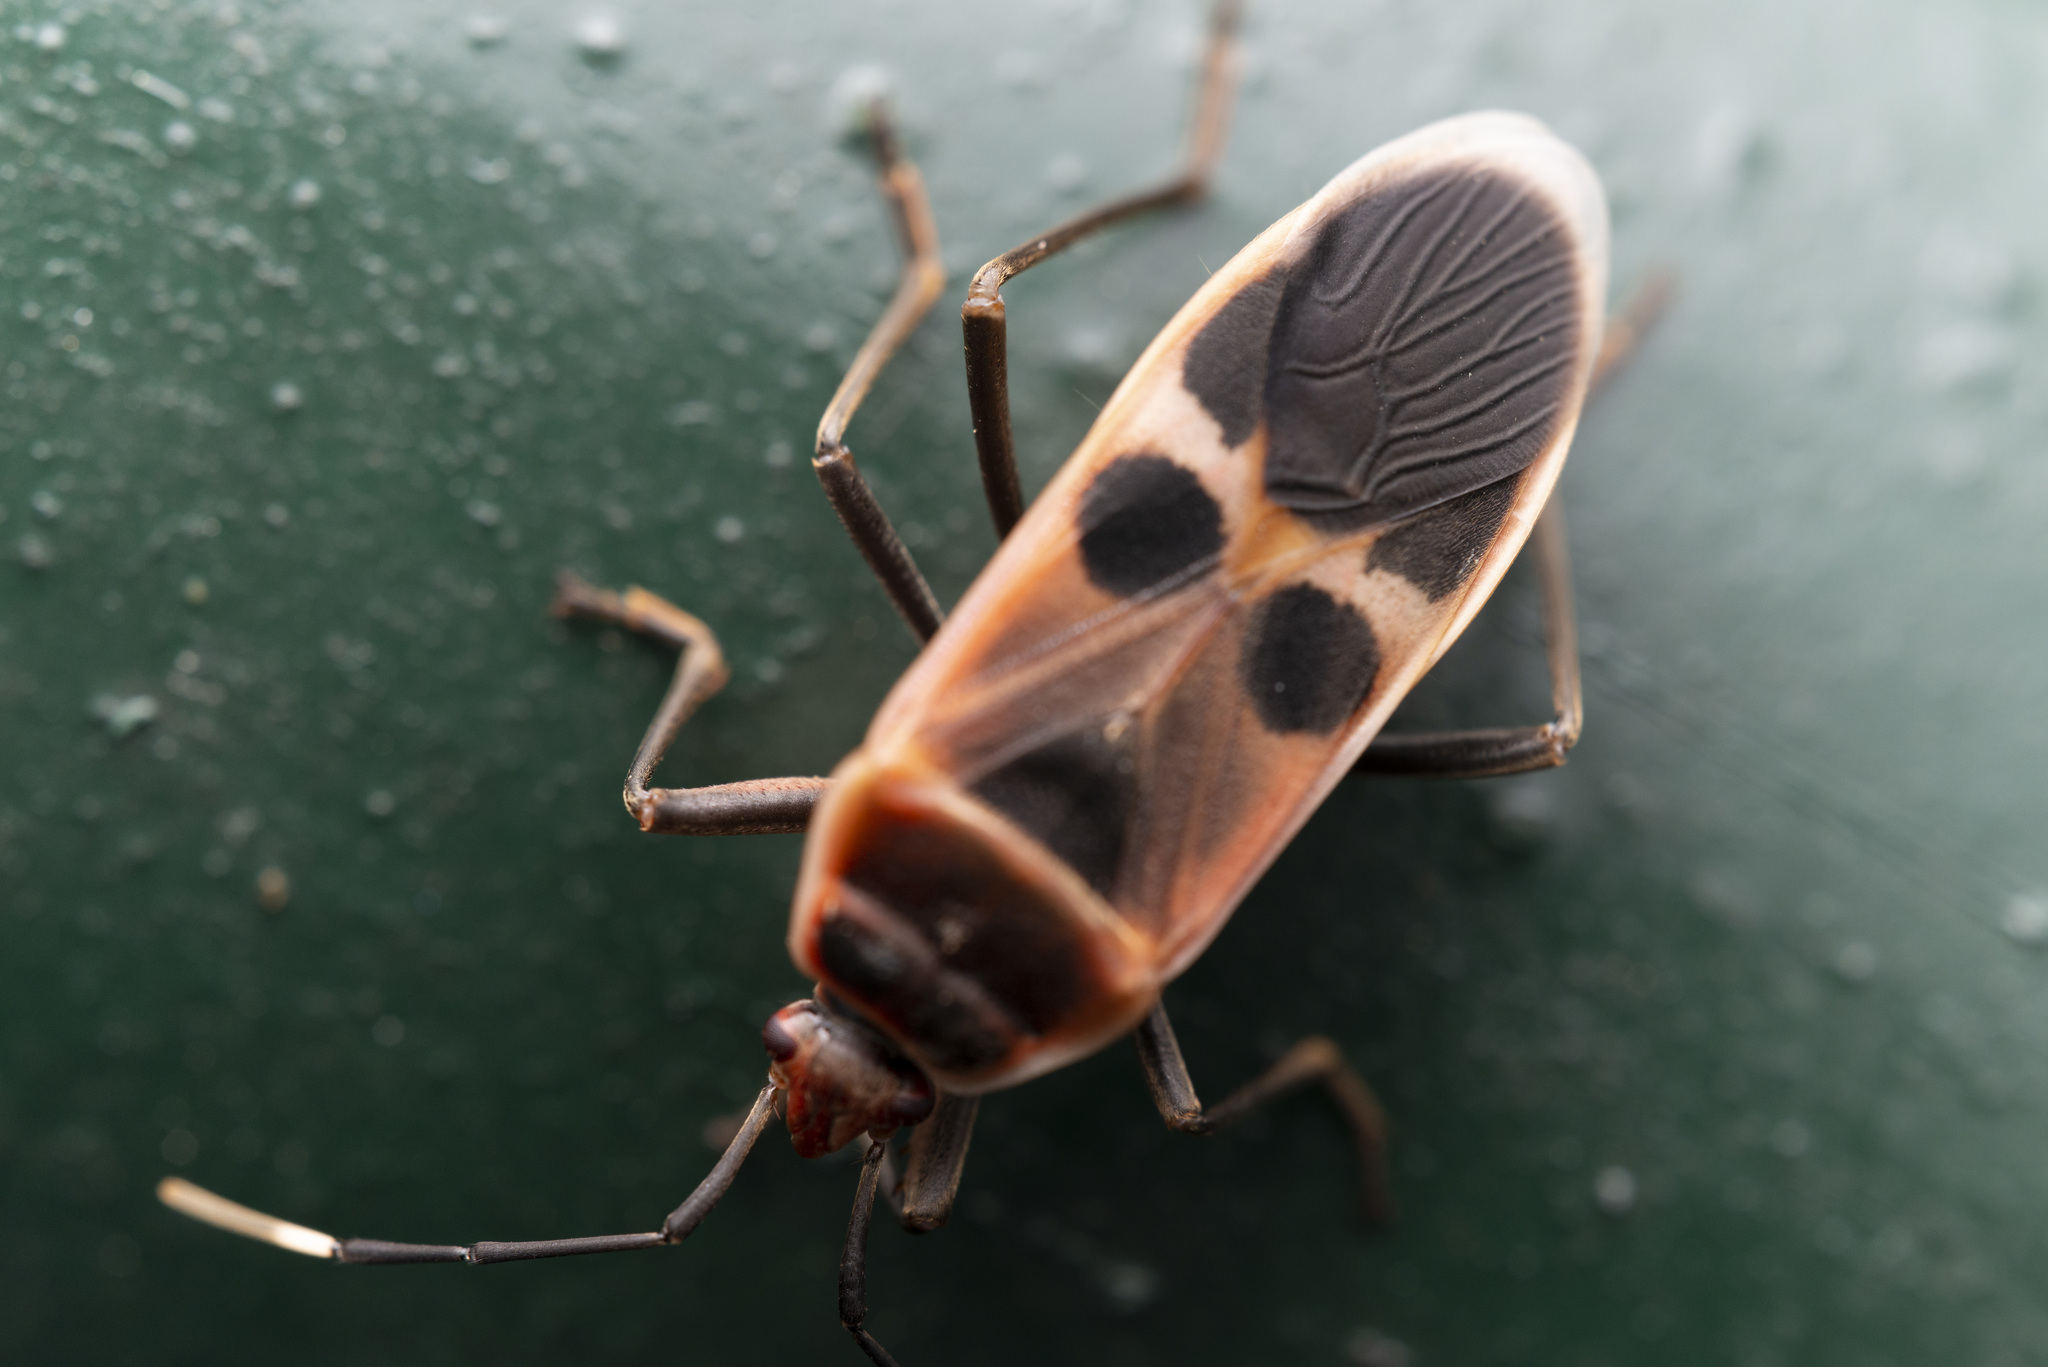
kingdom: Animalia
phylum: Arthropoda
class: Insecta
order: Hemiptera
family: Largidae
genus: Physopelta
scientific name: Physopelta gutta
